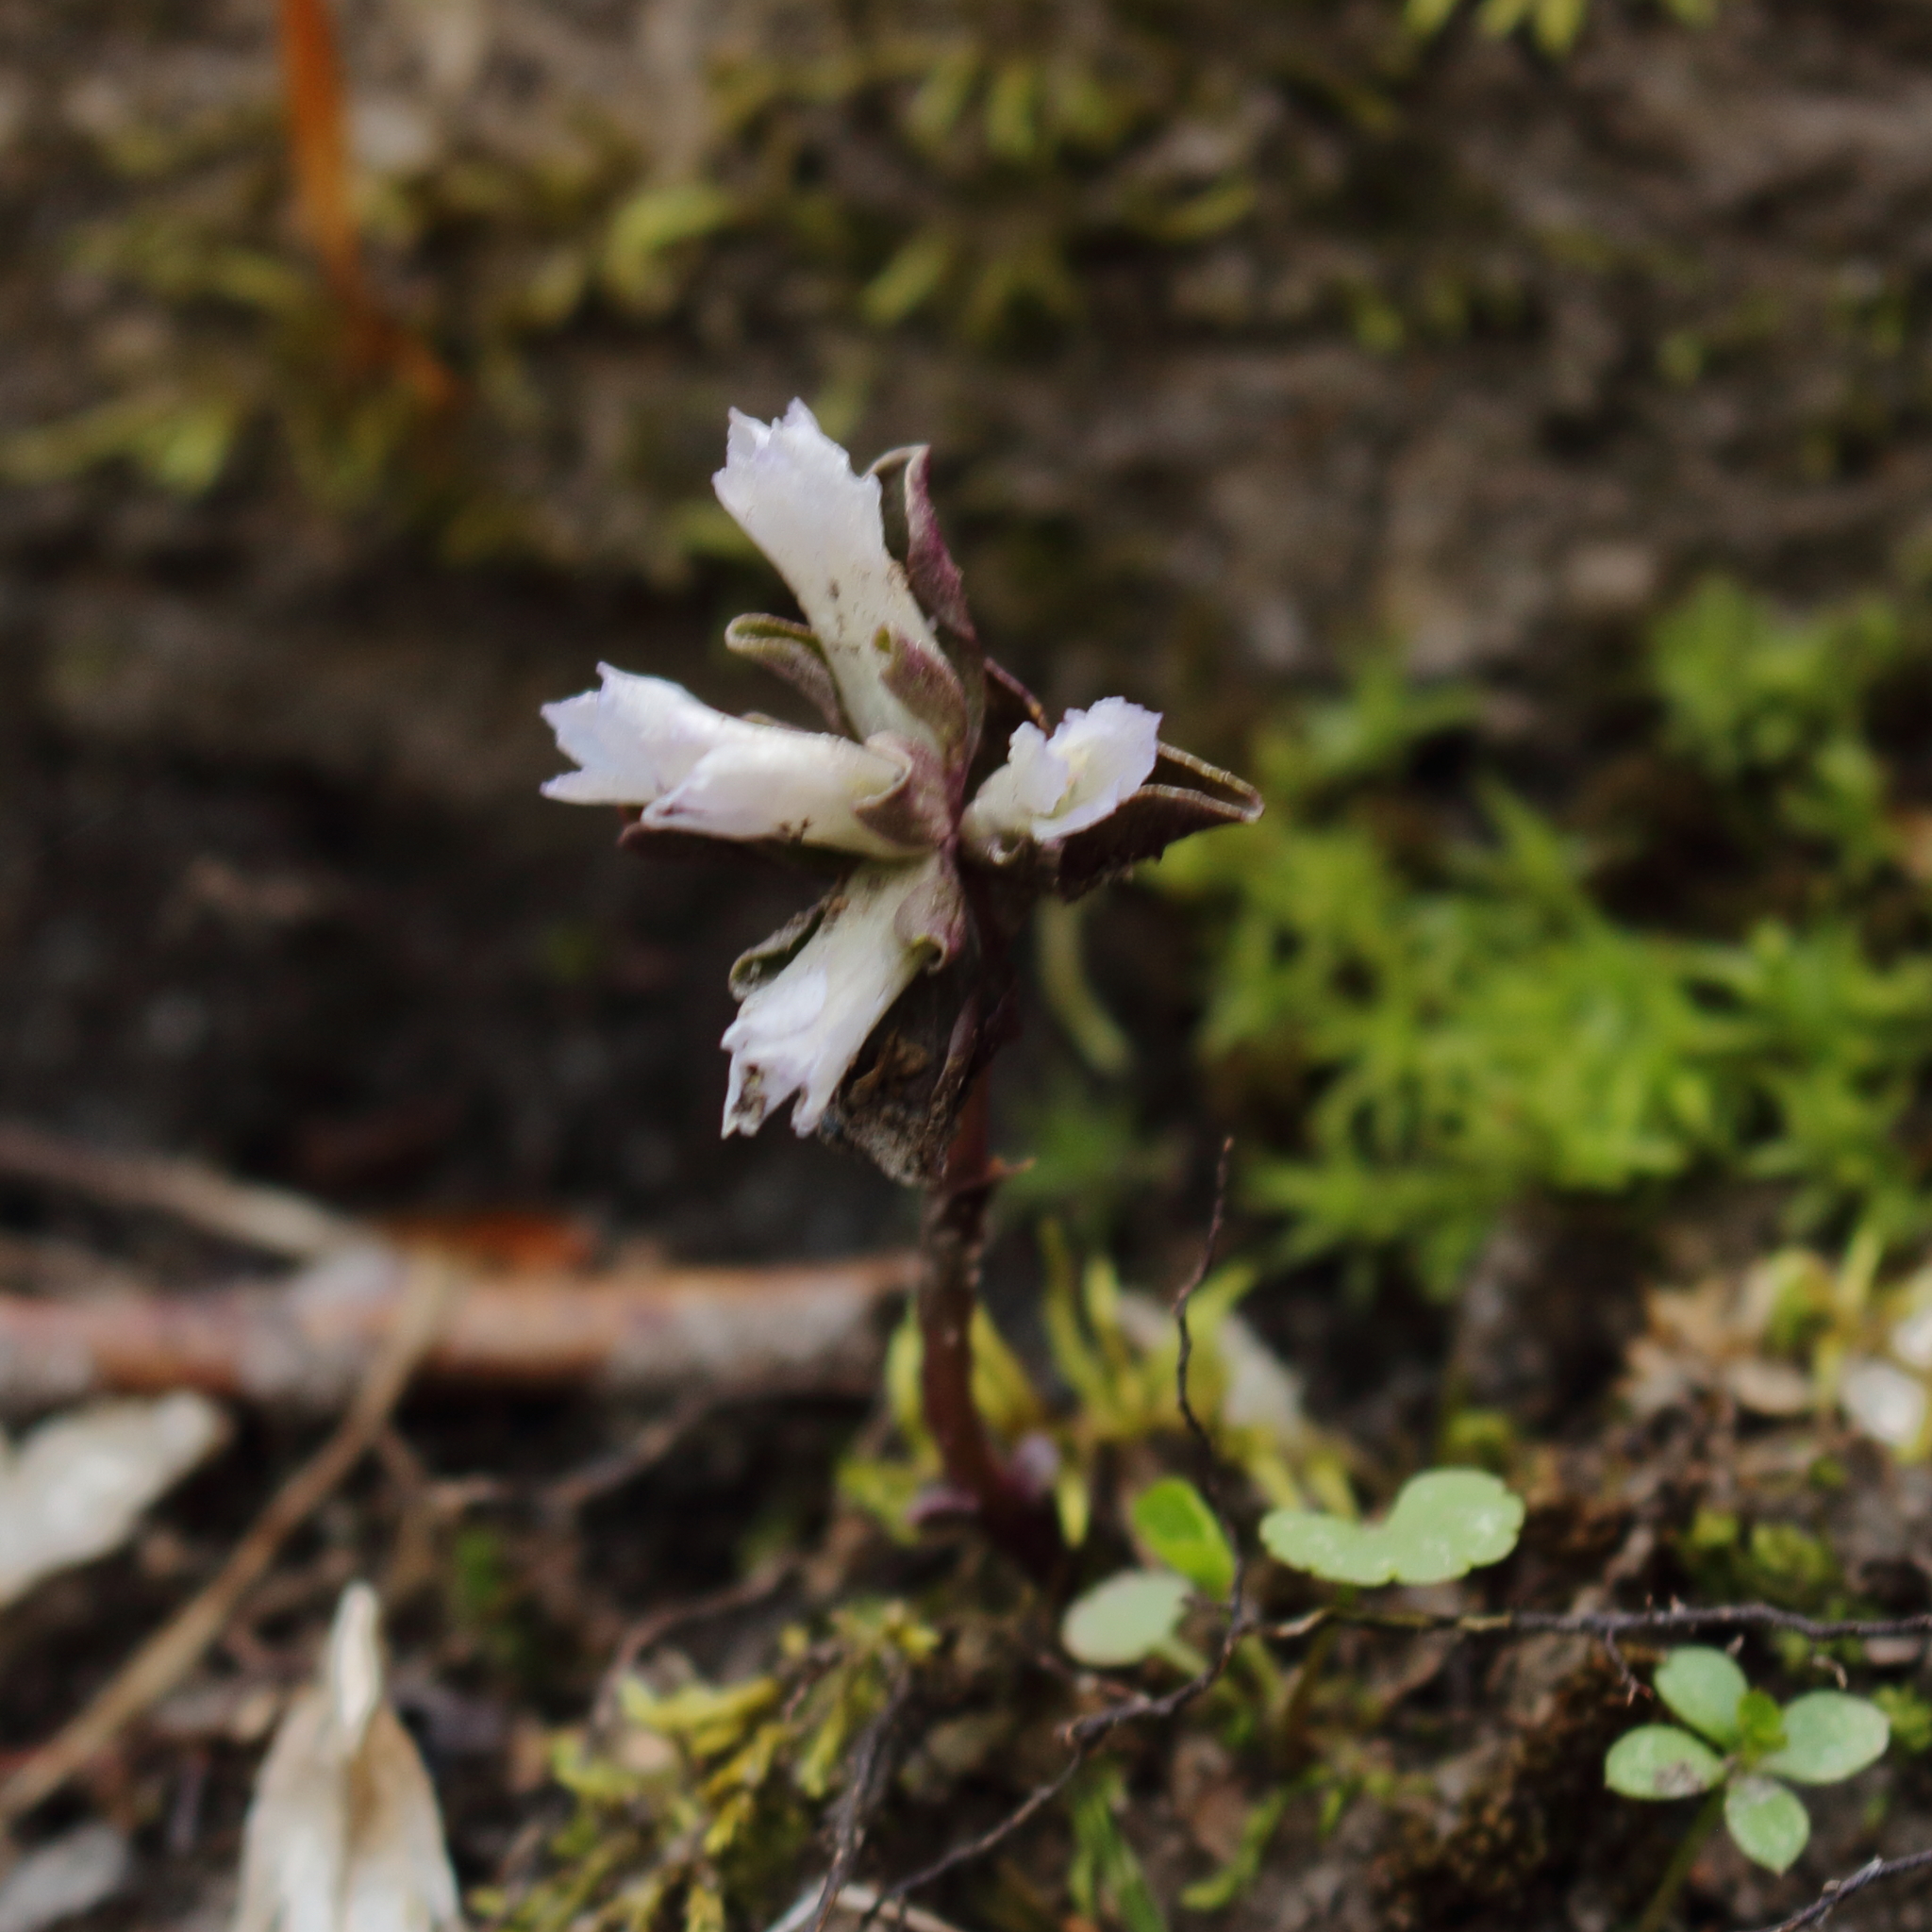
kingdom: Plantae
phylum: Tracheophyta
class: Magnoliopsida
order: Gentianales
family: Gentianaceae
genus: Obolaria
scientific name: Obolaria virginica
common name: Pennywort
